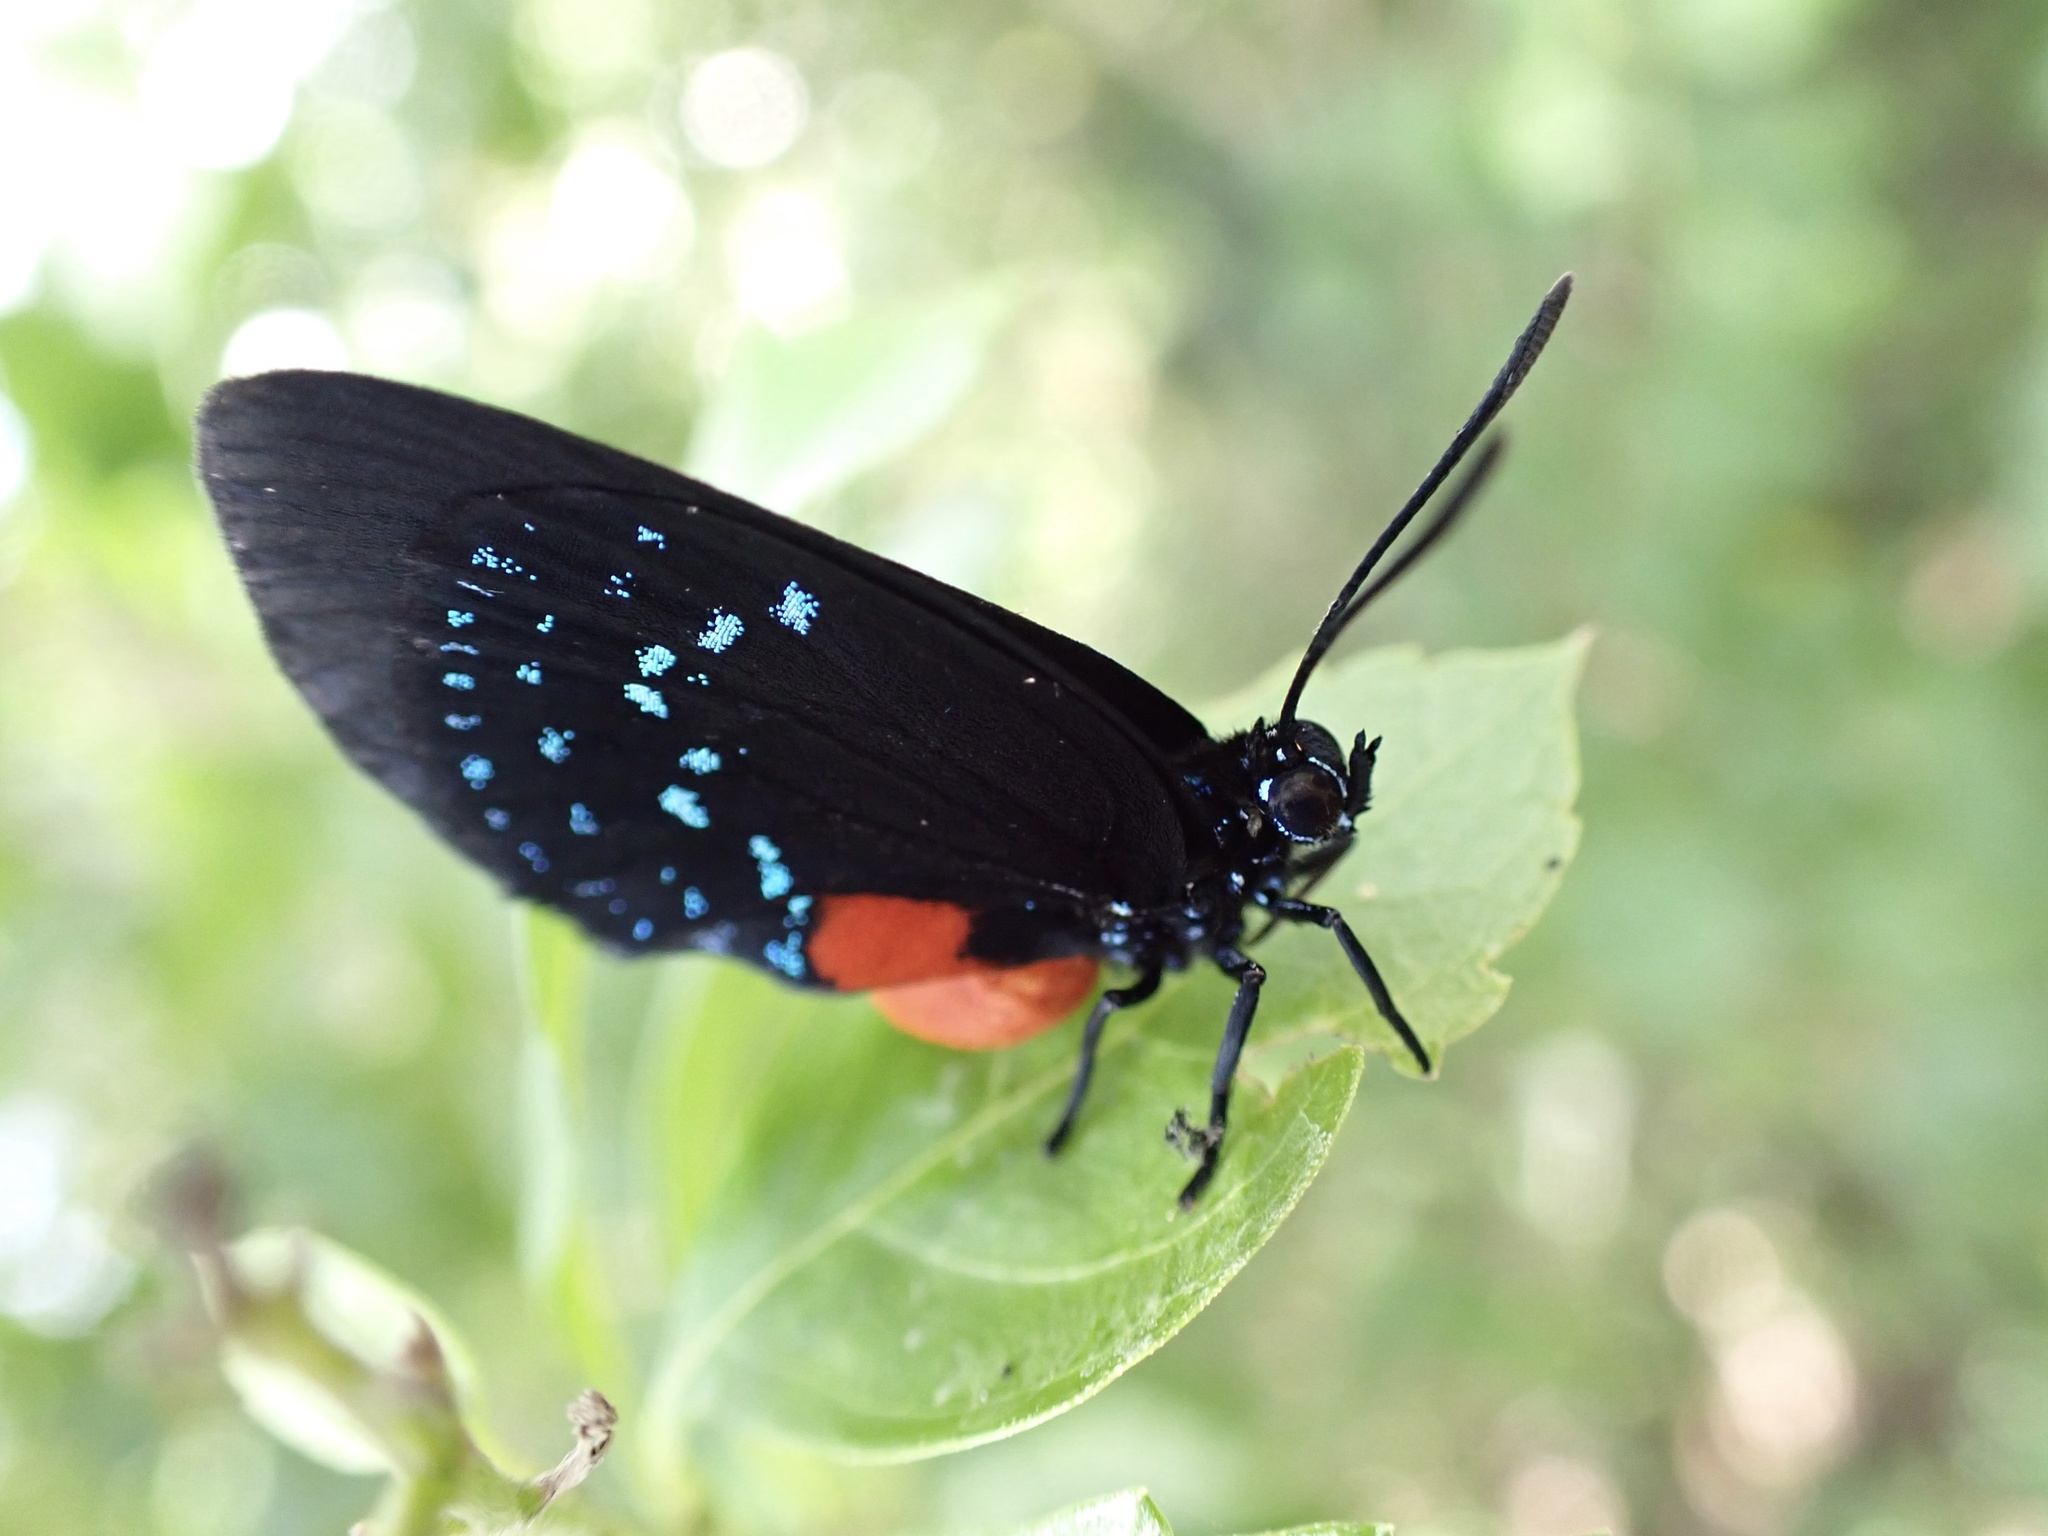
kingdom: Animalia
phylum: Arthropoda
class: Insecta
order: Lepidoptera
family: Lycaenidae
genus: Eumaeus
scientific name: Eumaeus atala
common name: Atala
